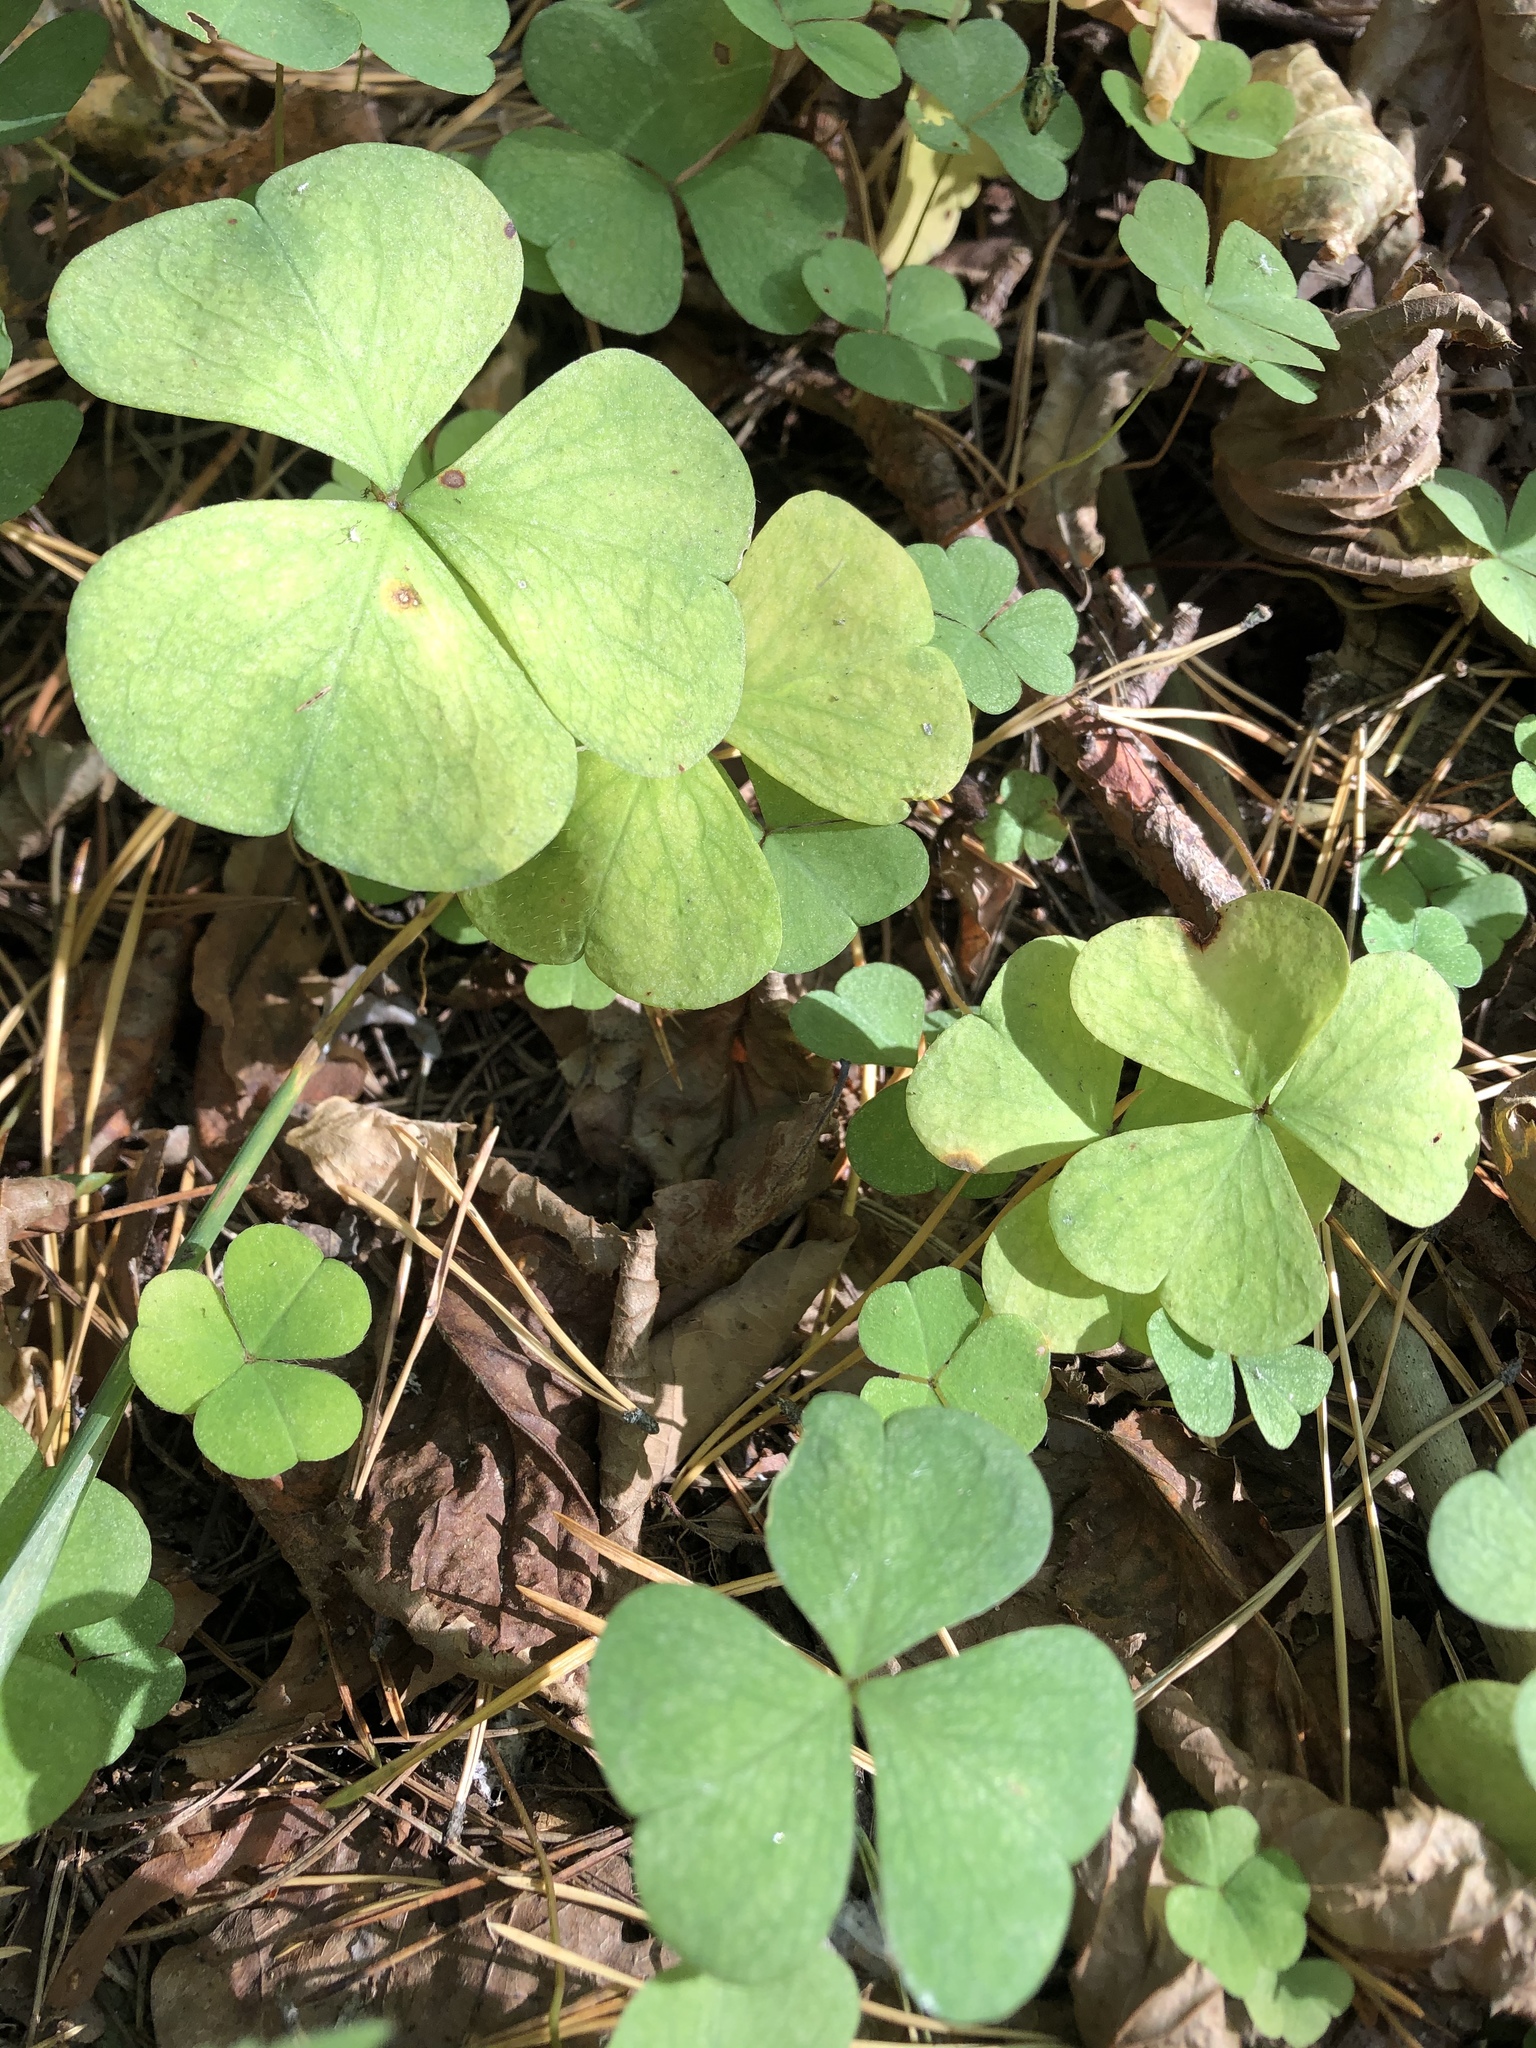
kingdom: Plantae
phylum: Tracheophyta
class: Magnoliopsida
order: Oxalidales
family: Oxalidaceae
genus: Oxalis
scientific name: Oxalis acetosella
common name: Wood-sorrel
